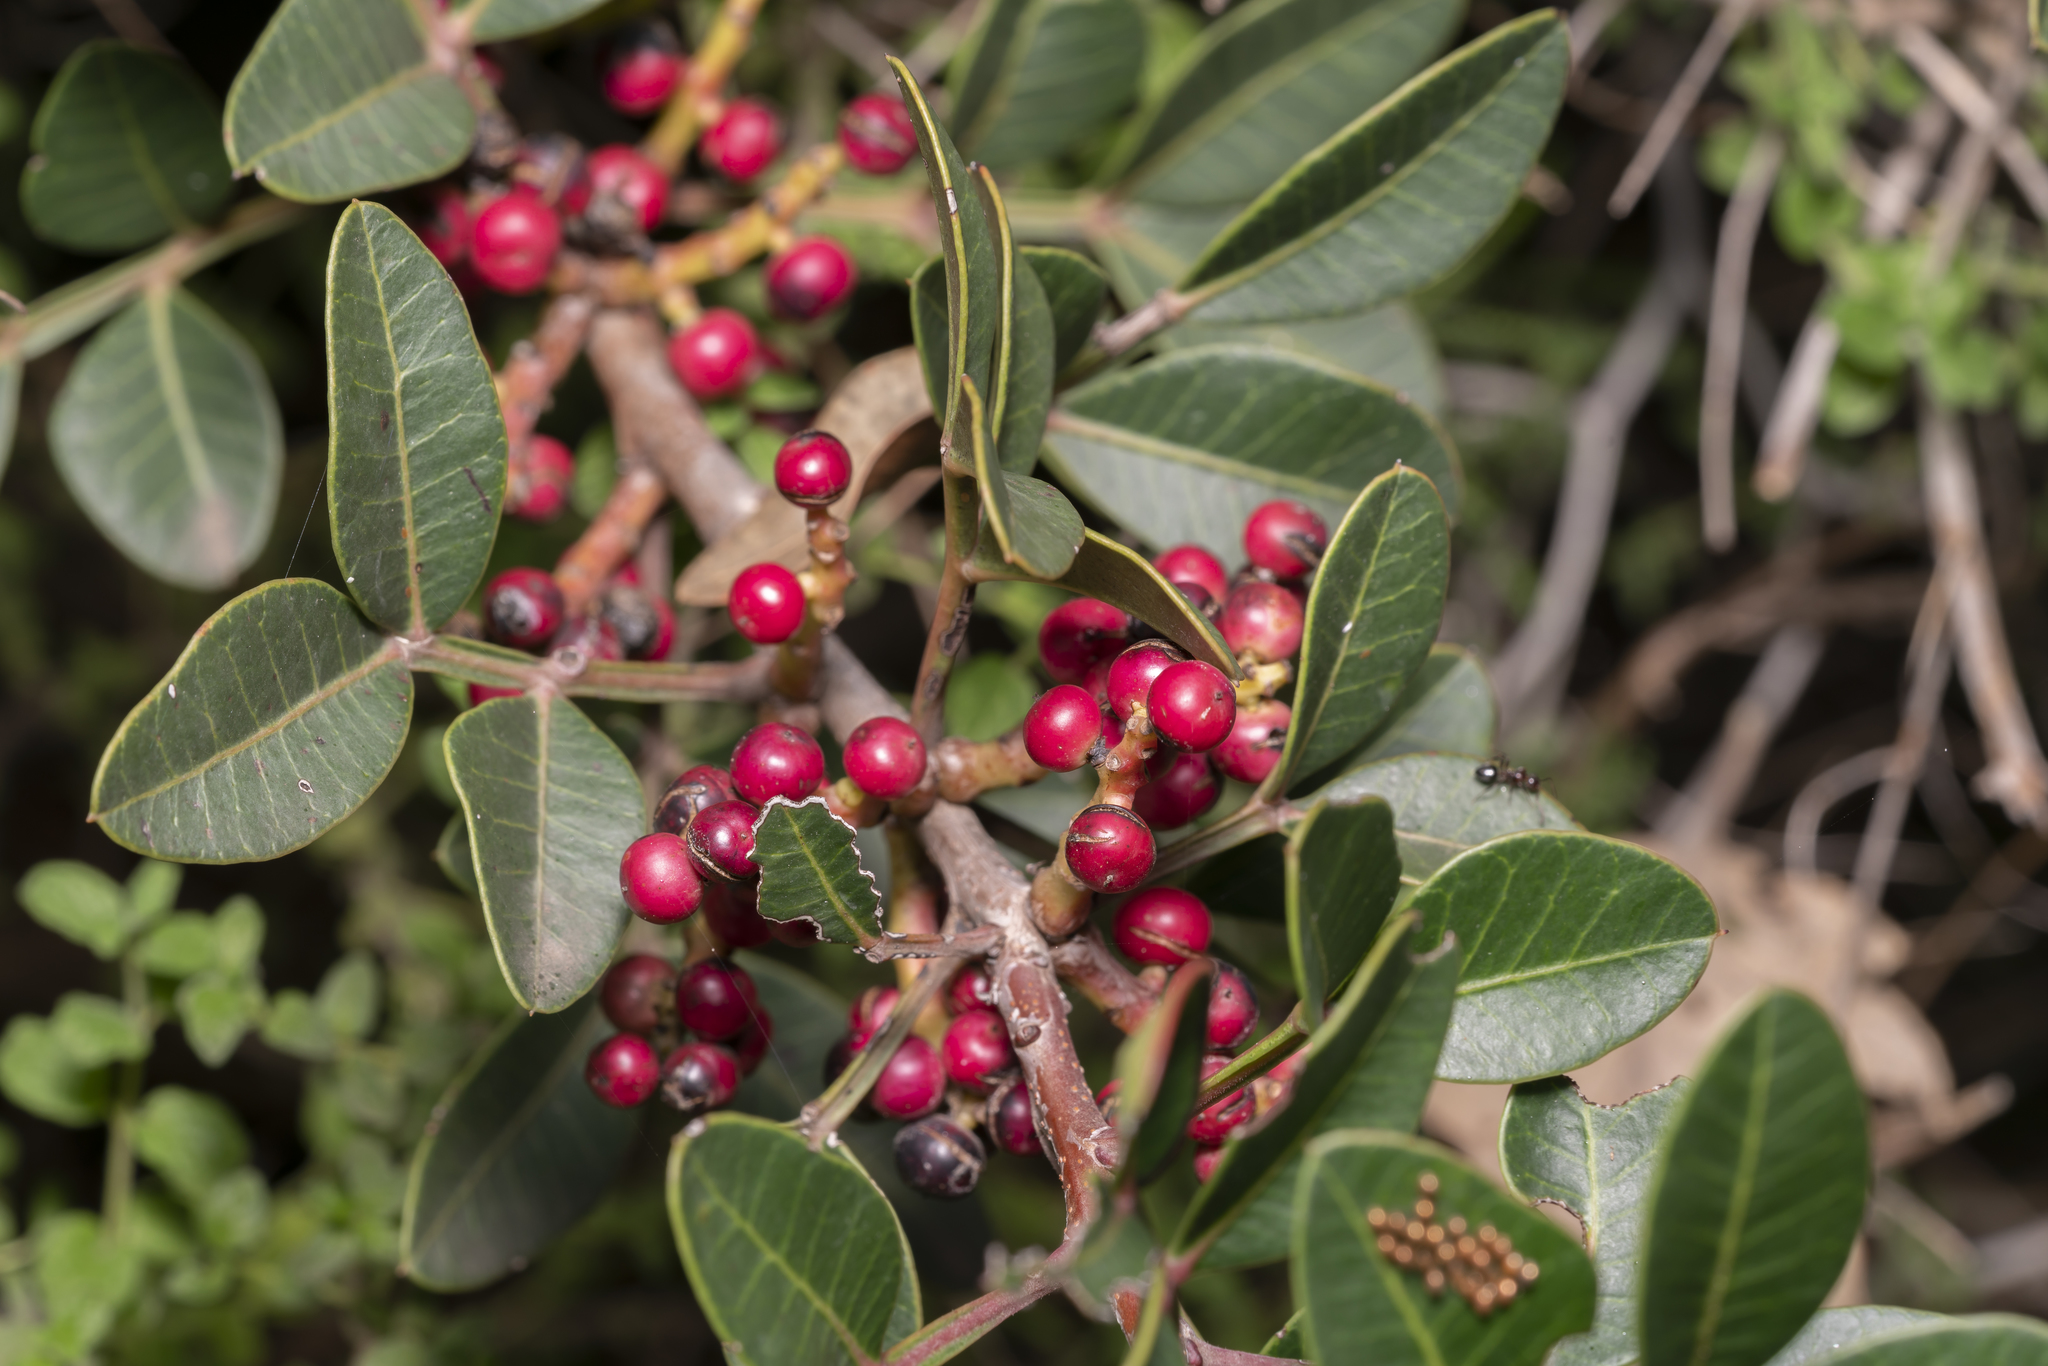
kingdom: Plantae
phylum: Tracheophyta
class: Magnoliopsida
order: Sapindales
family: Anacardiaceae
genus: Pistacia
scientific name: Pistacia lentiscus
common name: Lentisk
